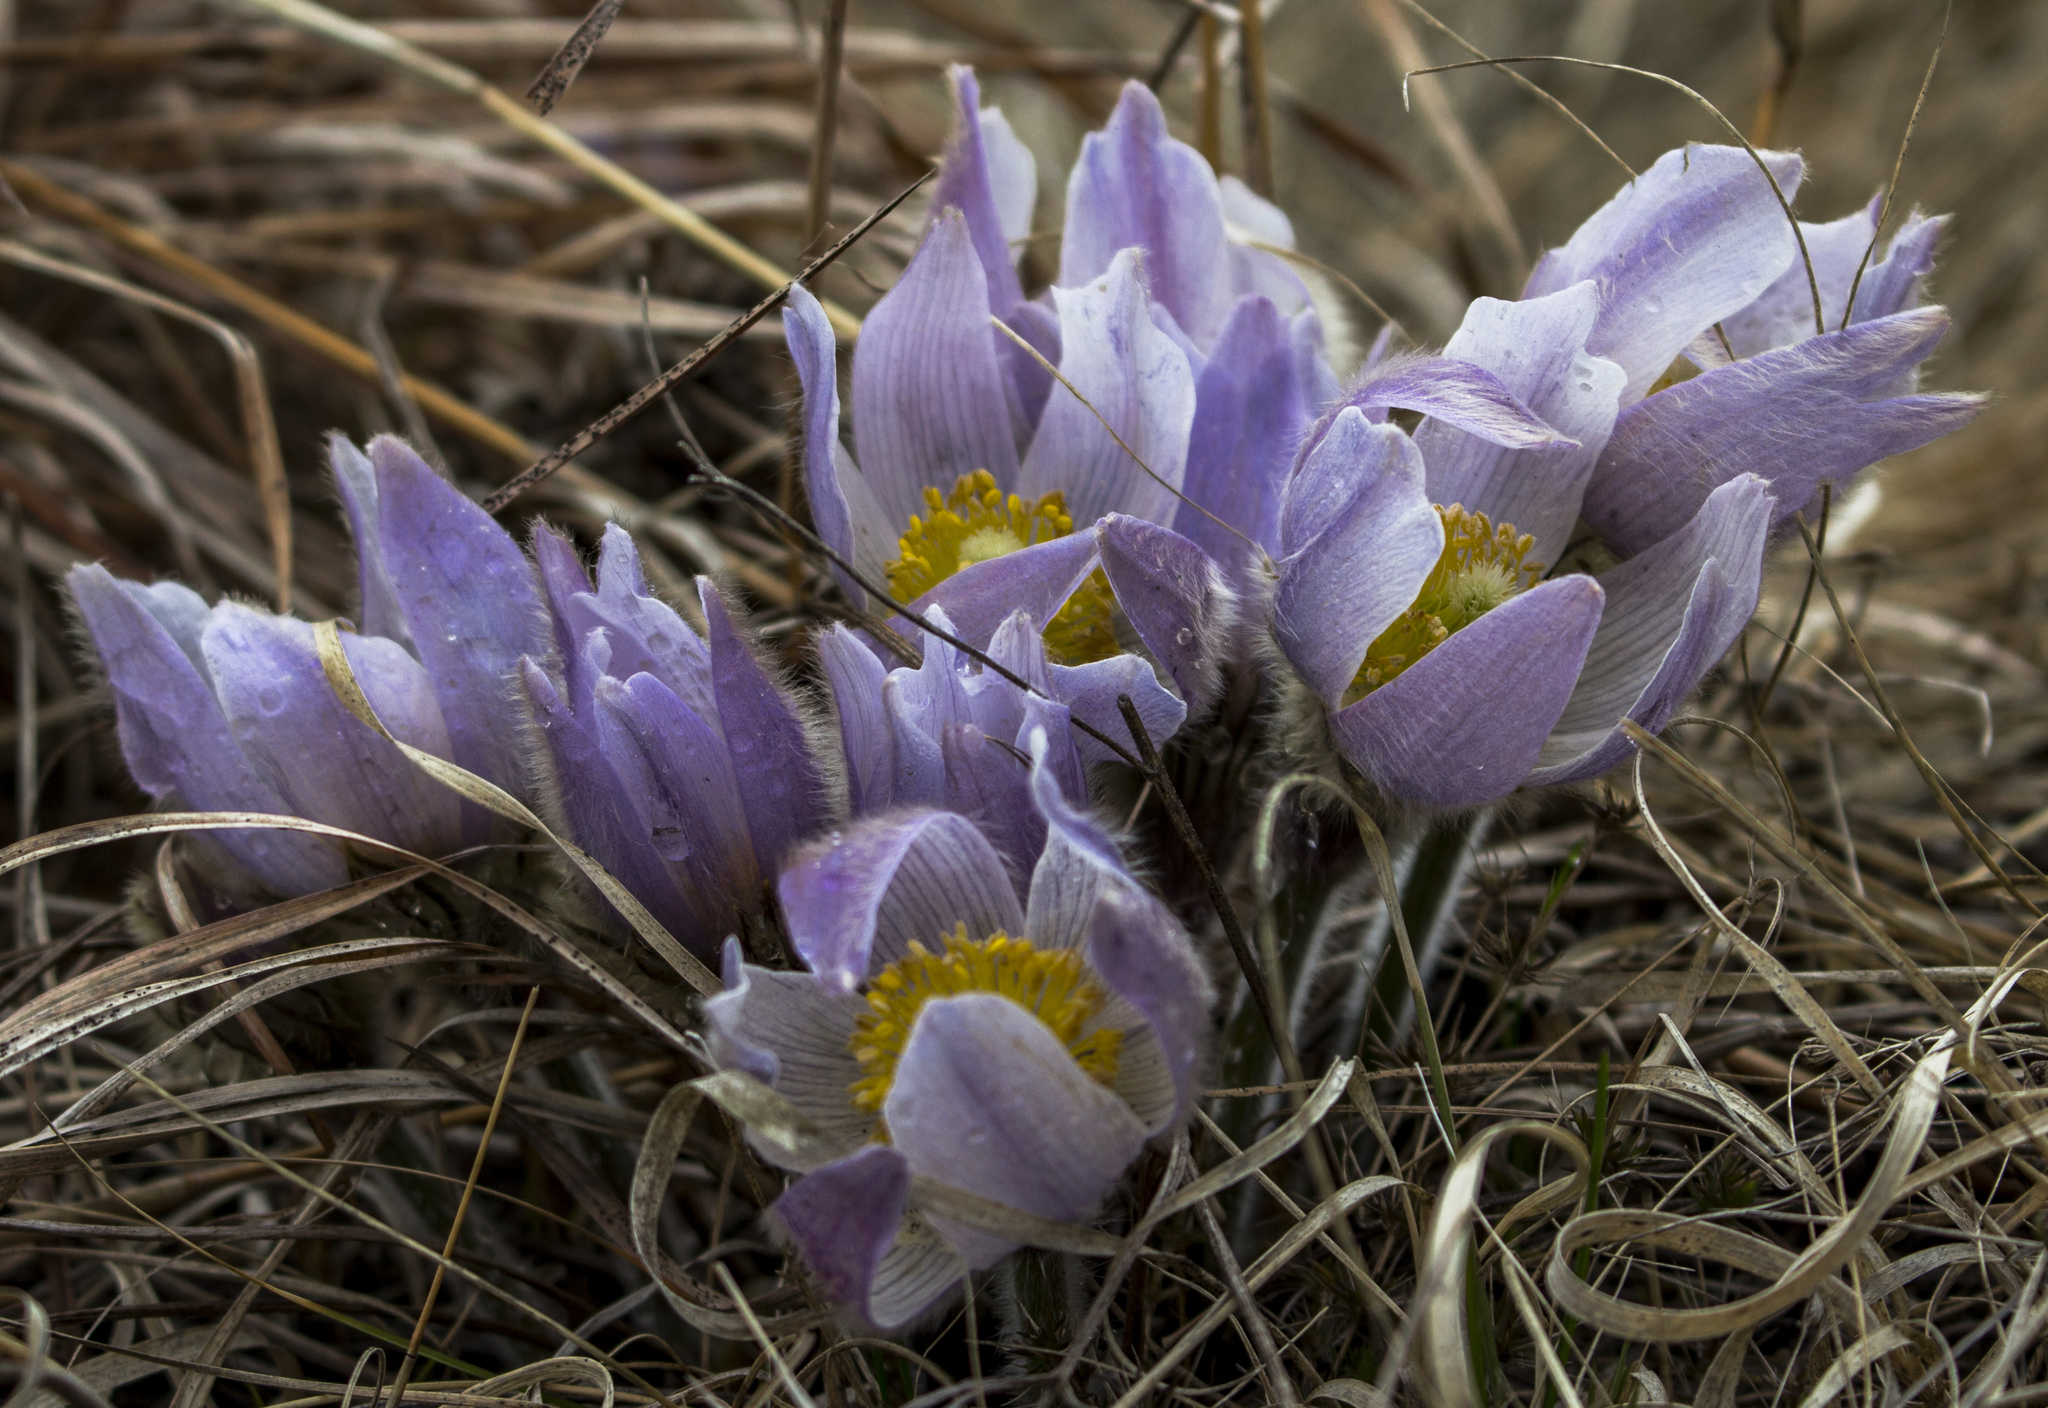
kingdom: Plantae
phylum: Tracheophyta
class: Magnoliopsida
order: Ranunculales
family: Ranunculaceae
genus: Pulsatilla
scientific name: Pulsatilla nuttalliana
